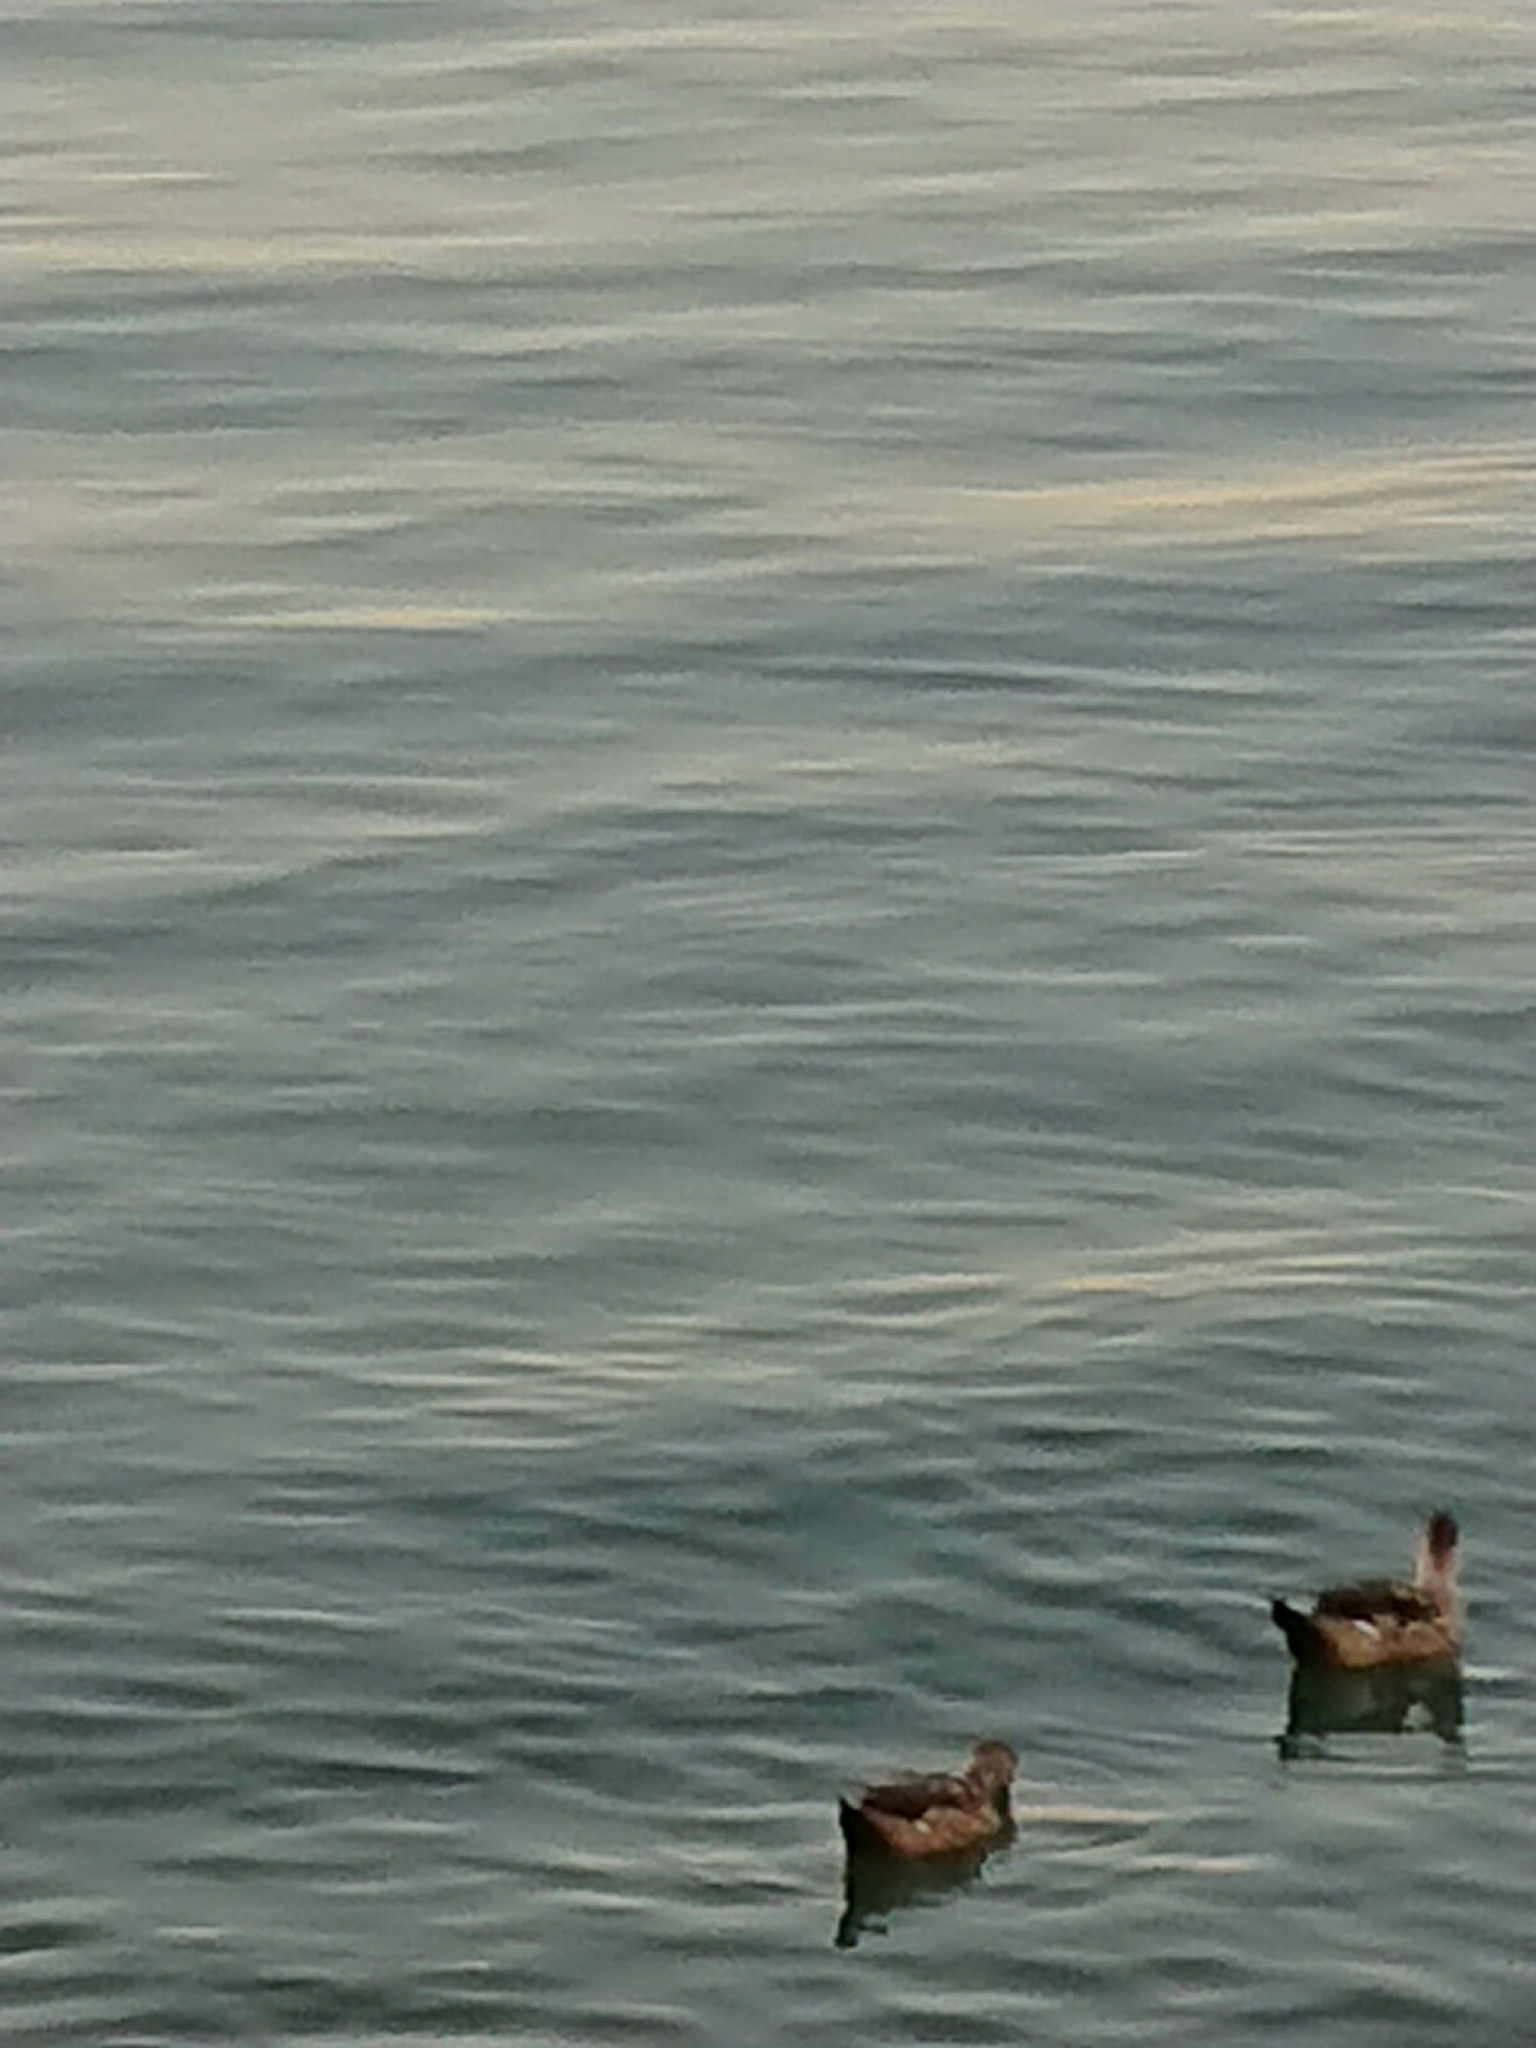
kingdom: Animalia
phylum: Chordata
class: Aves
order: Anseriformes
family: Anatidae
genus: Lophonetta
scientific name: Lophonetta specularioides
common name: Crested duck
